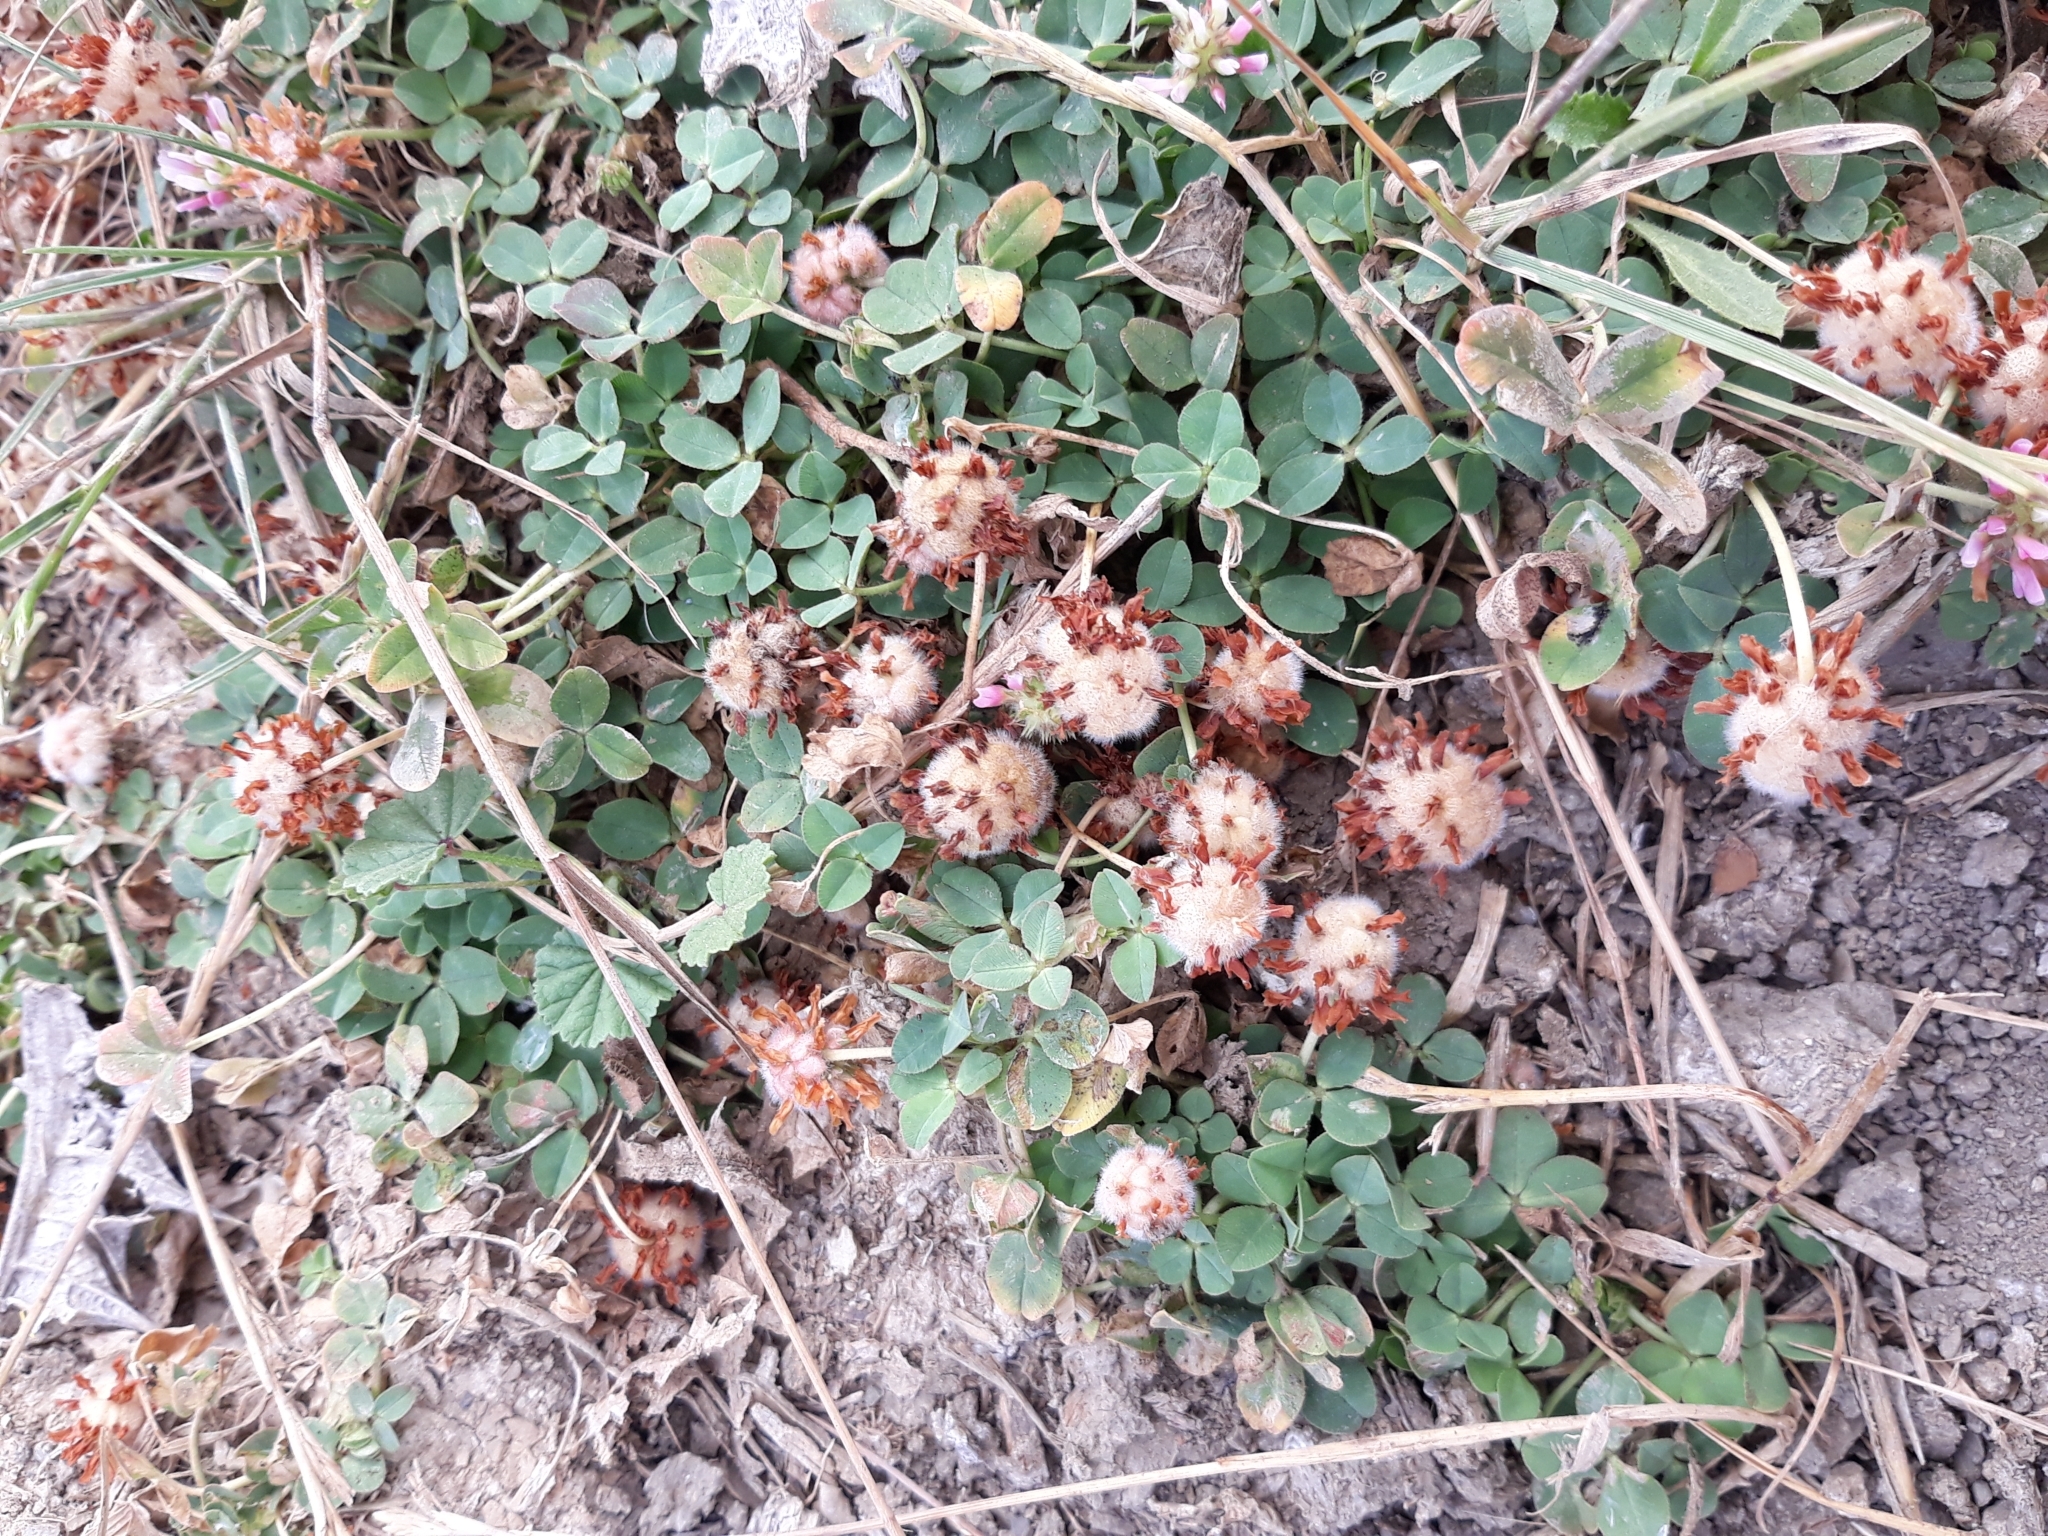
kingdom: Plantae
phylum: Tracheophyta
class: Magnoliopsida
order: Fabales
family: Fabaceae
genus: Trifolium
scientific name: Trifolium fragiferum
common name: Strawberry clover
